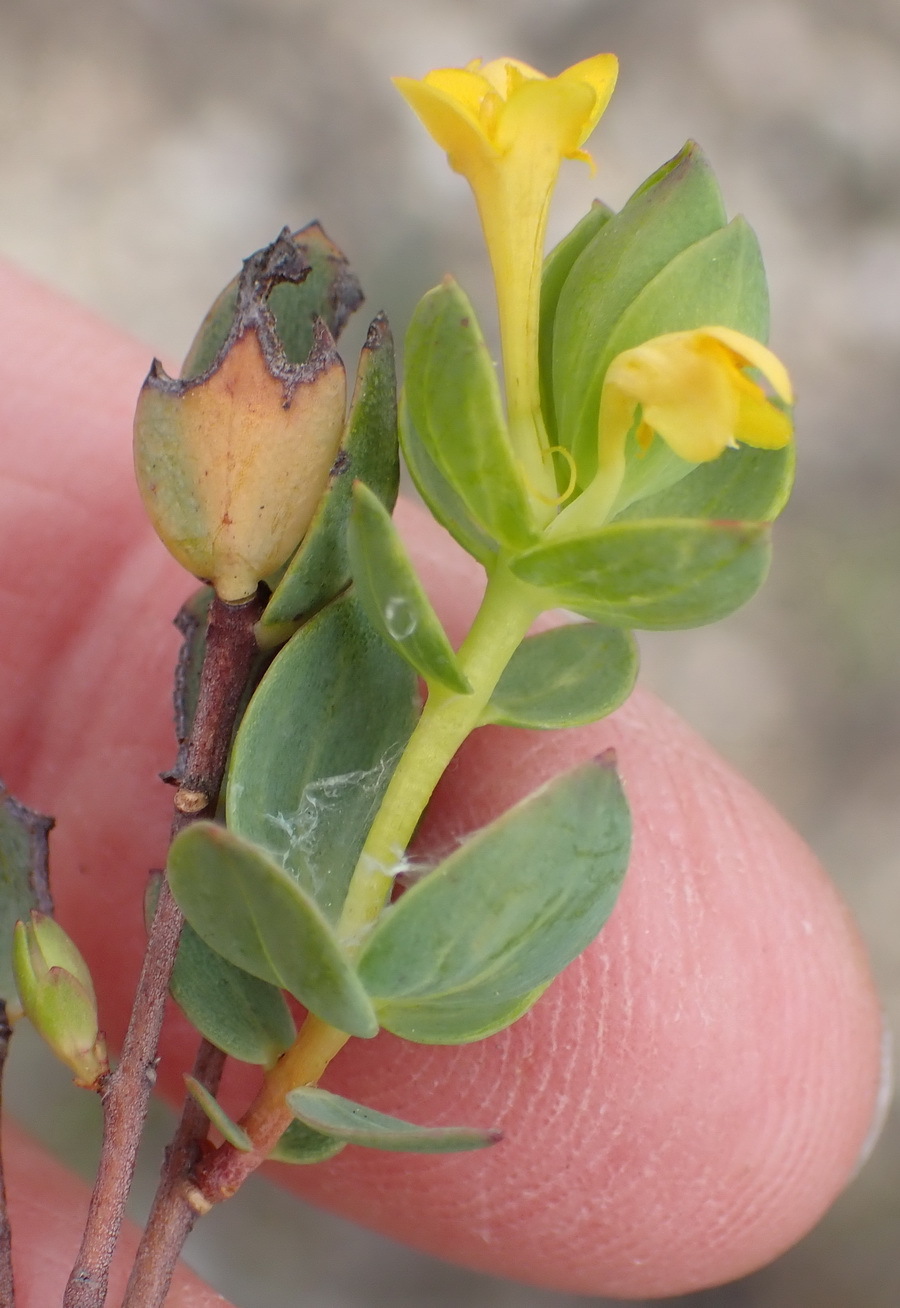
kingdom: Plantae
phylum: Tracheophyta
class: Magnoliopsida
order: Malvales
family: Thymelaeaceae
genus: Gnidia
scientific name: Gnidia styphelioides
